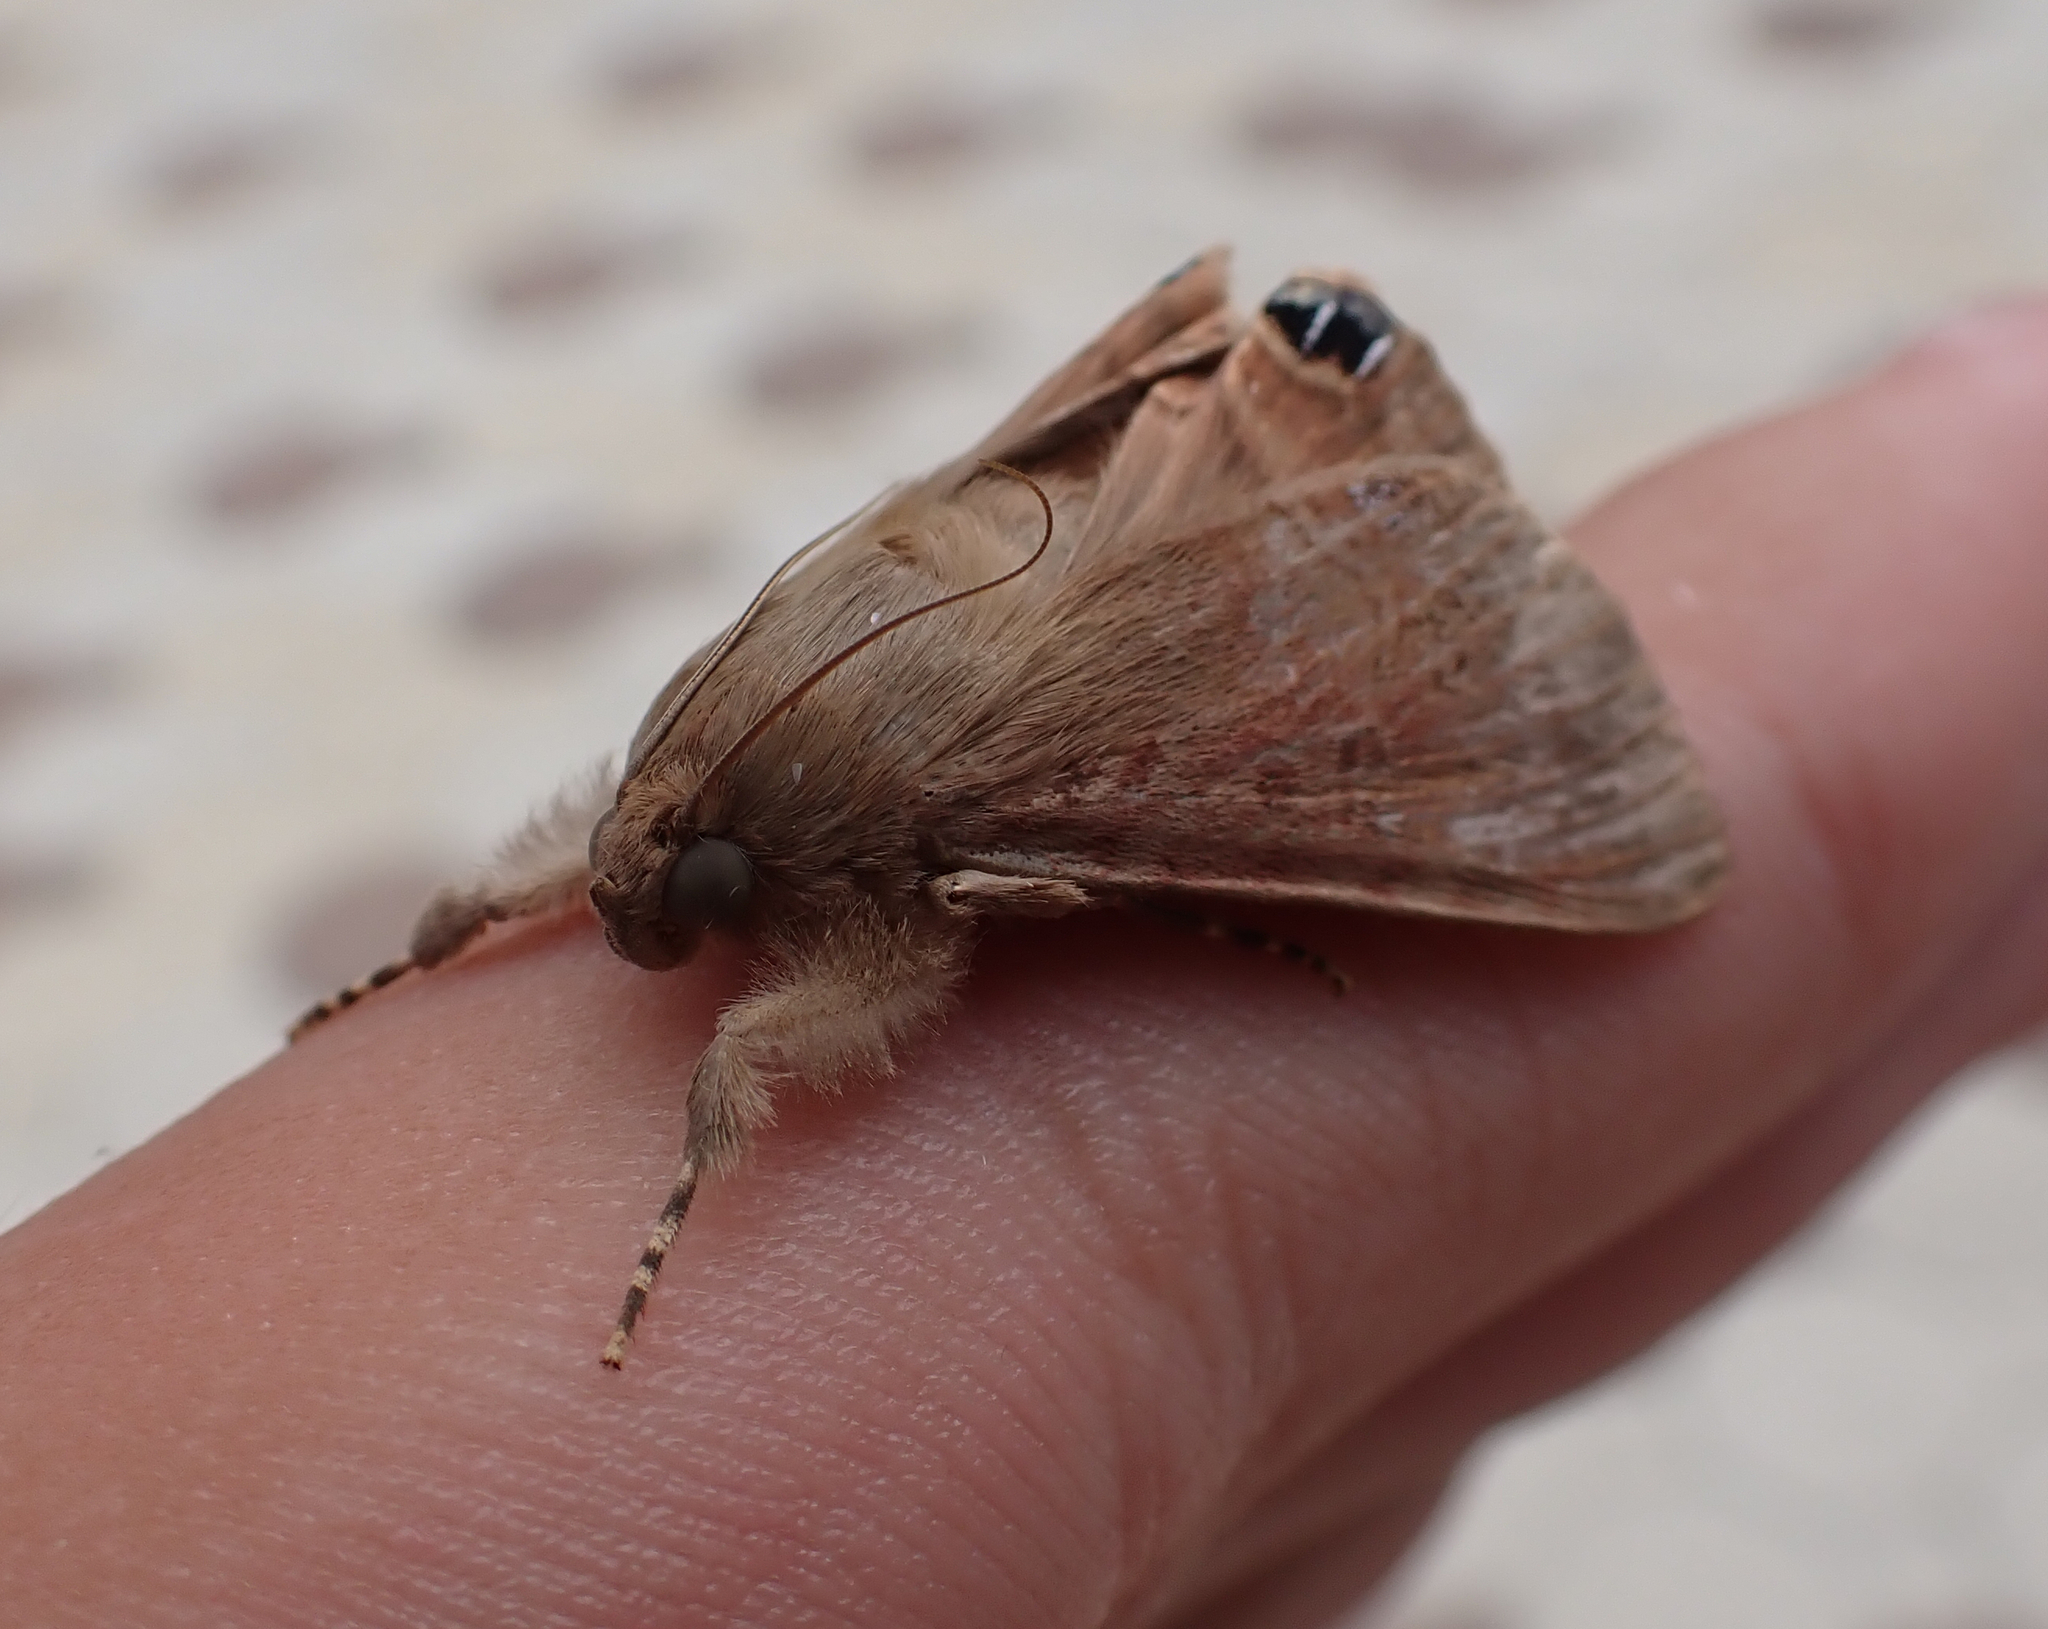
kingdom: Animalia
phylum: Arthropoda
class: Insecta
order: Lepidoptera
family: Erebidae
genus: Litoprosopus
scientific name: Litoprosopus futilis
